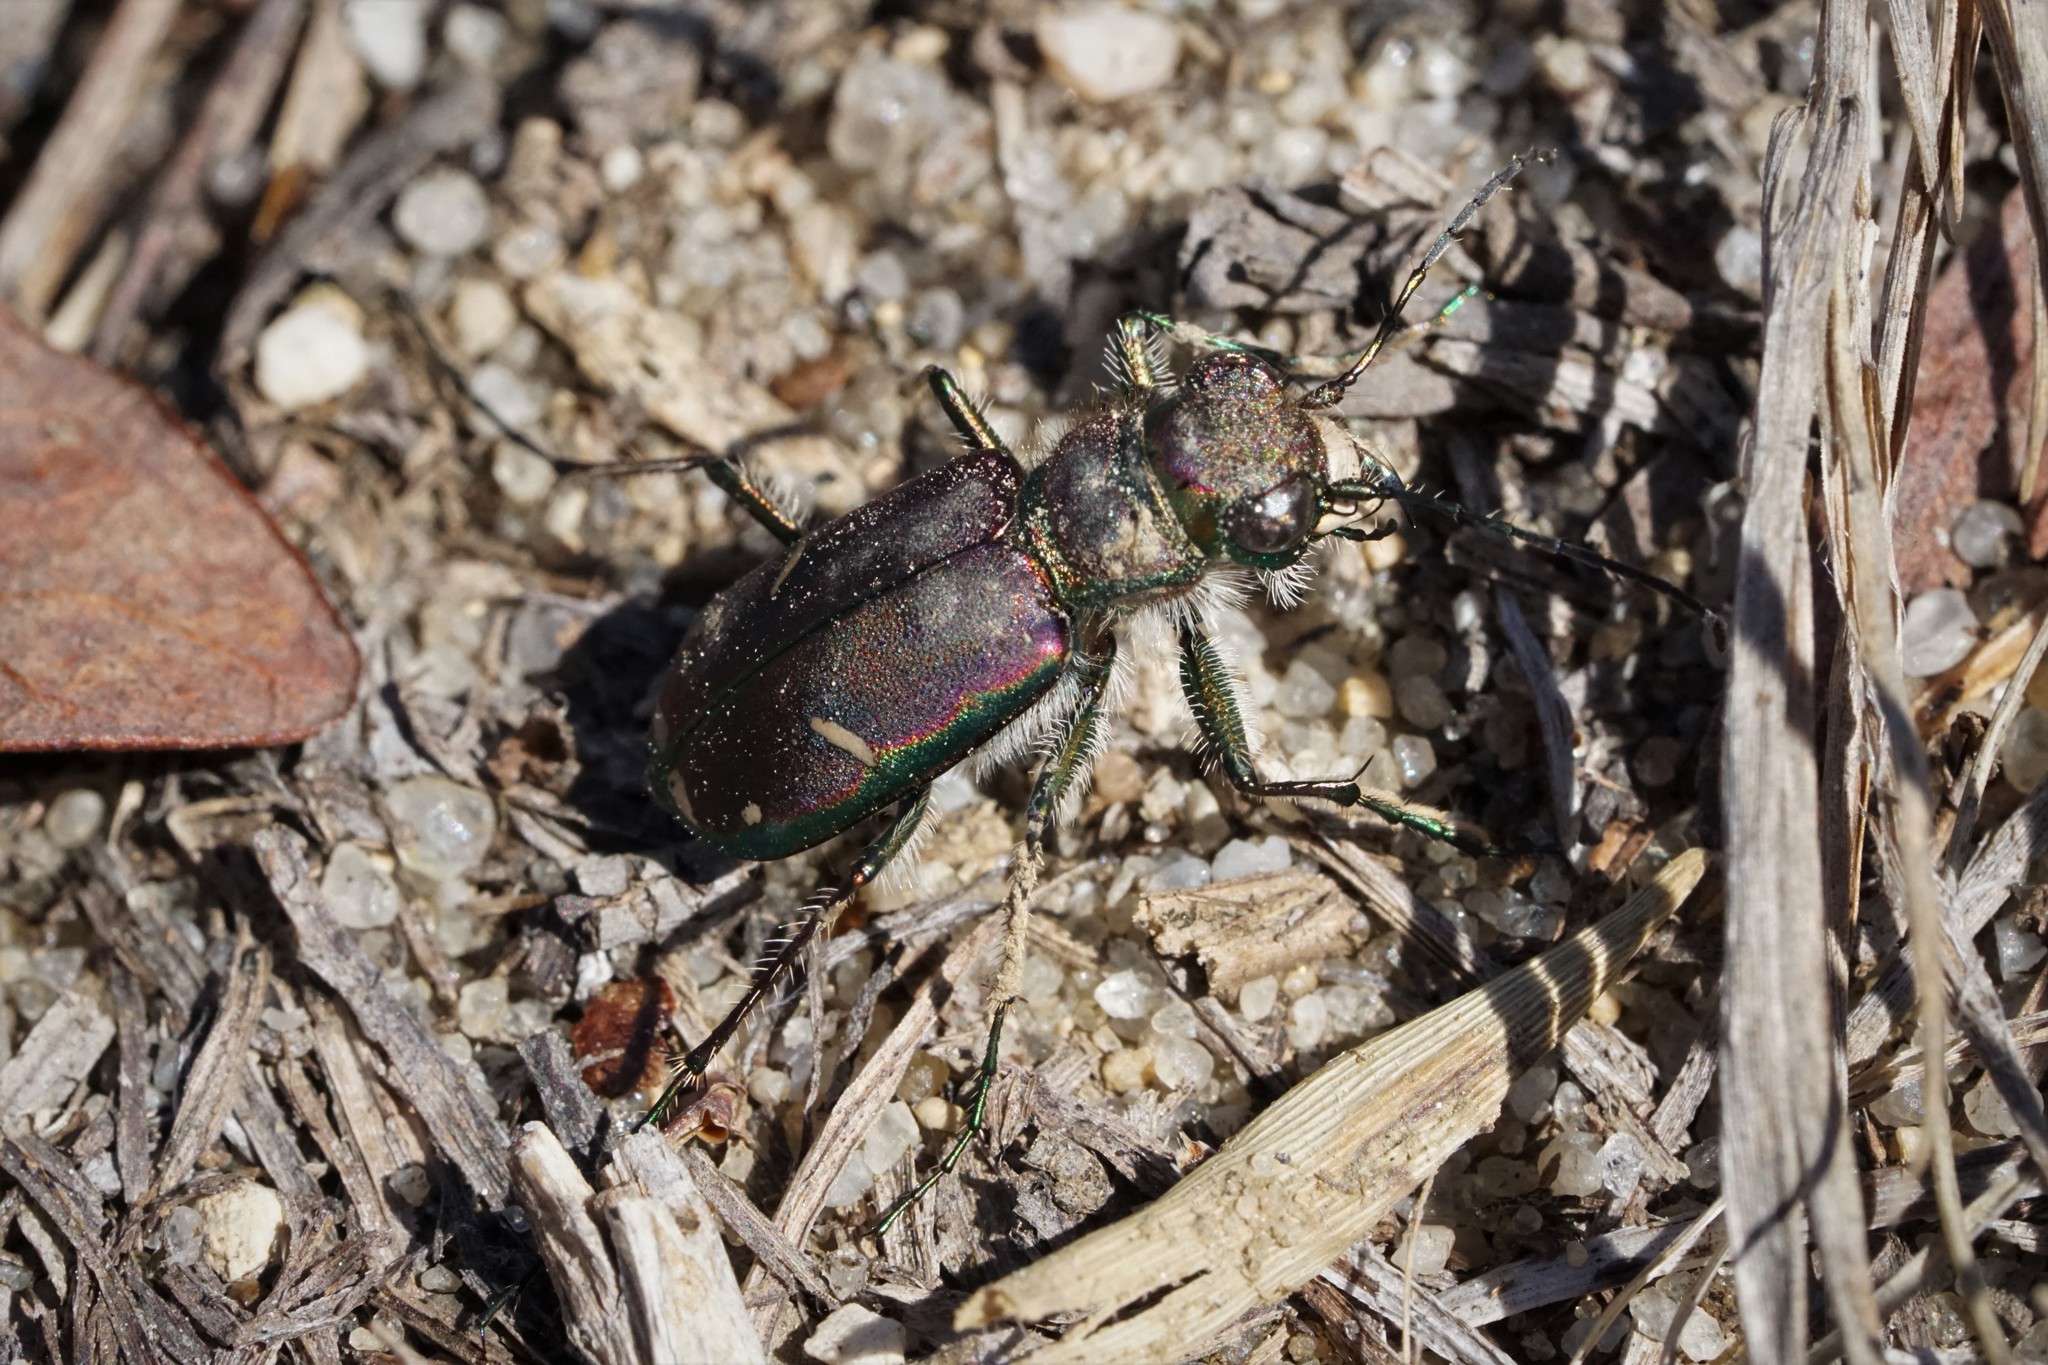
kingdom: Animalia
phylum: Arthropoda
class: Insecta
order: Coleoptera
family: Carabidae
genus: Cicindela
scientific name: Cicindela purpurea
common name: Cow path tiger beetle
